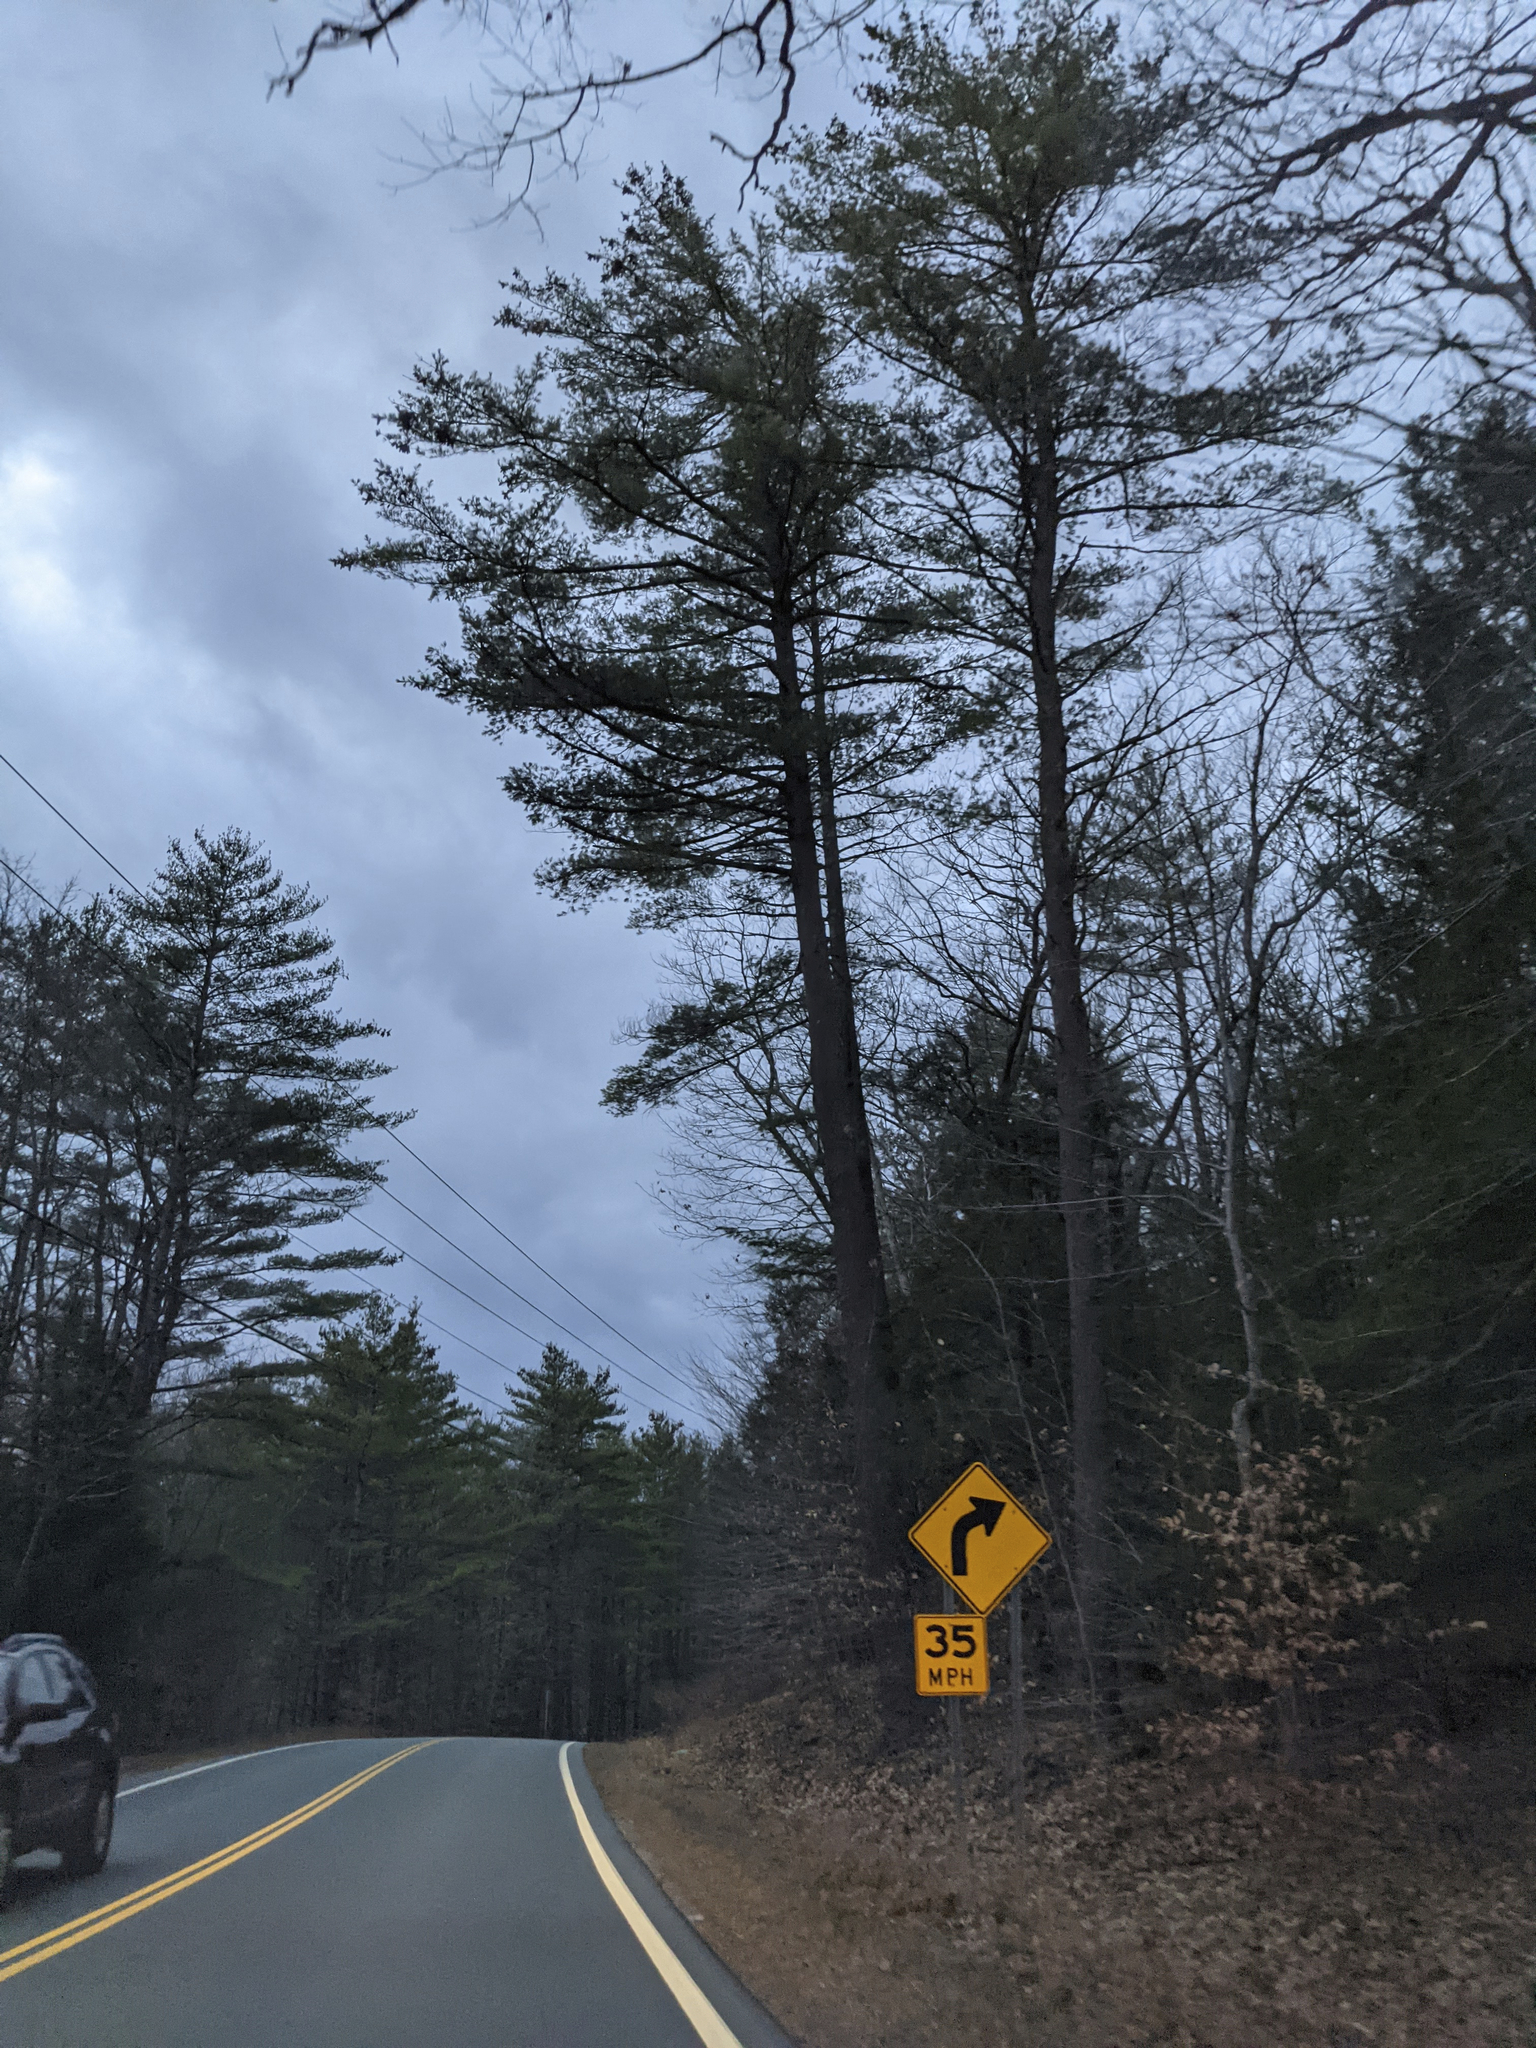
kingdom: Plantae
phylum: Tracheophyta
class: Pinopsida
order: Pinales
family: Pinaceae
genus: Pinus
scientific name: Pinus strobus
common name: Weymouth pine
